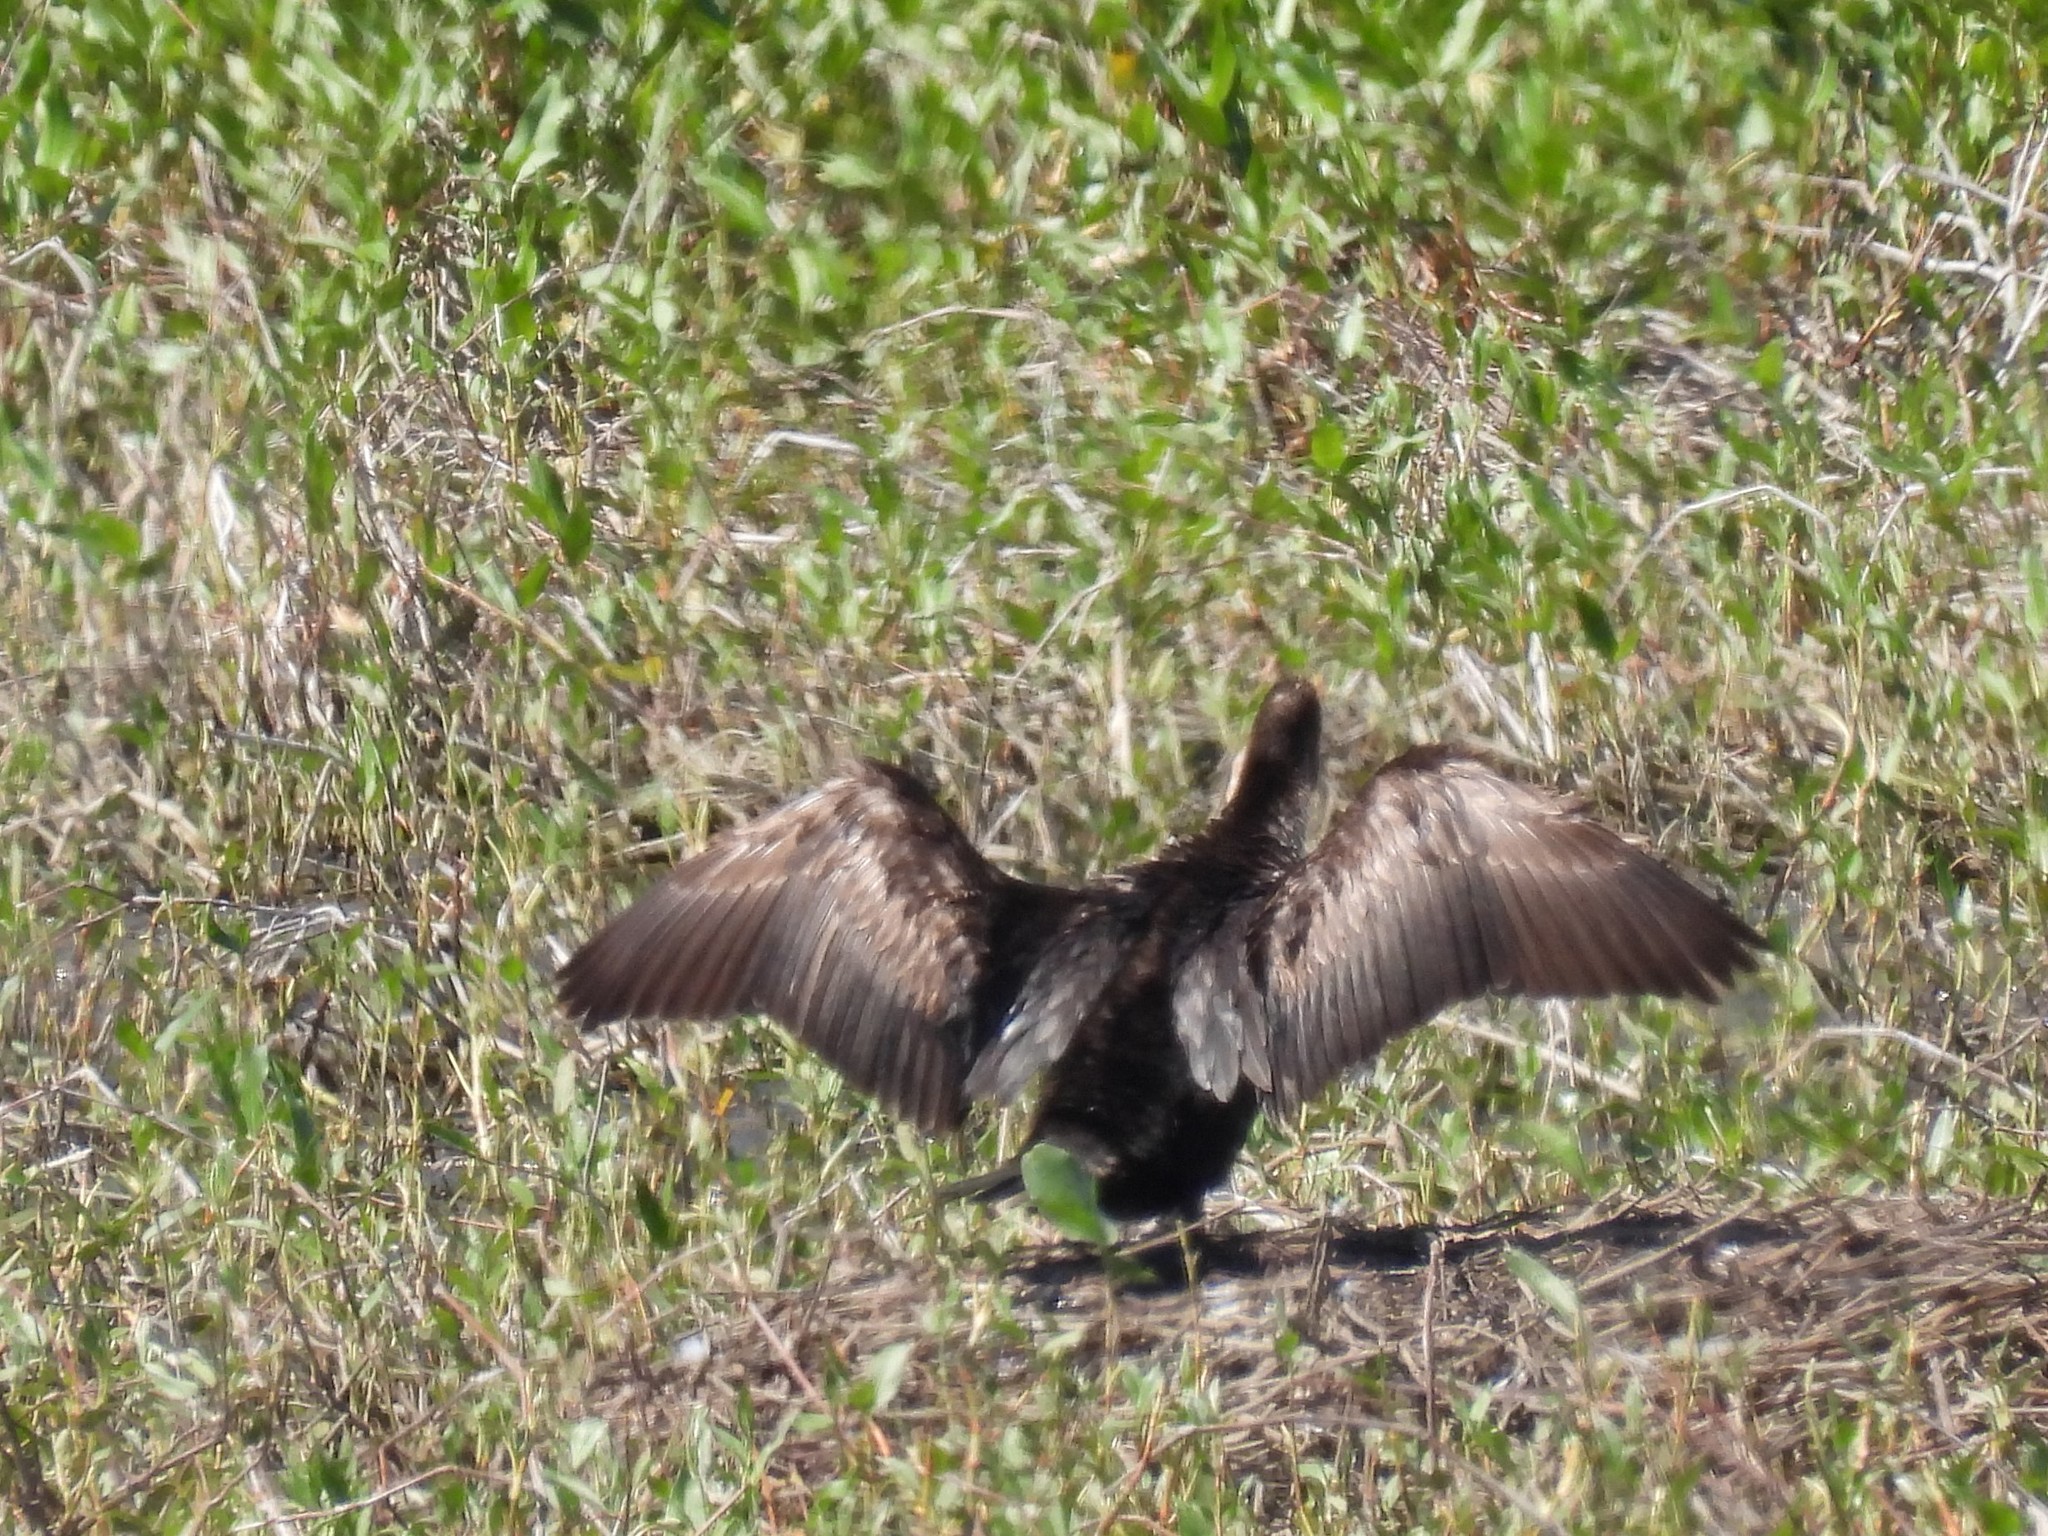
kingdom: Animalia
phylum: Chordata
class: Aves
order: Suliformes
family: Phalacrocoracidae
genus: Phalacrocorax
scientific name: Phalacrocorax auritus
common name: Double-crested cormorant
